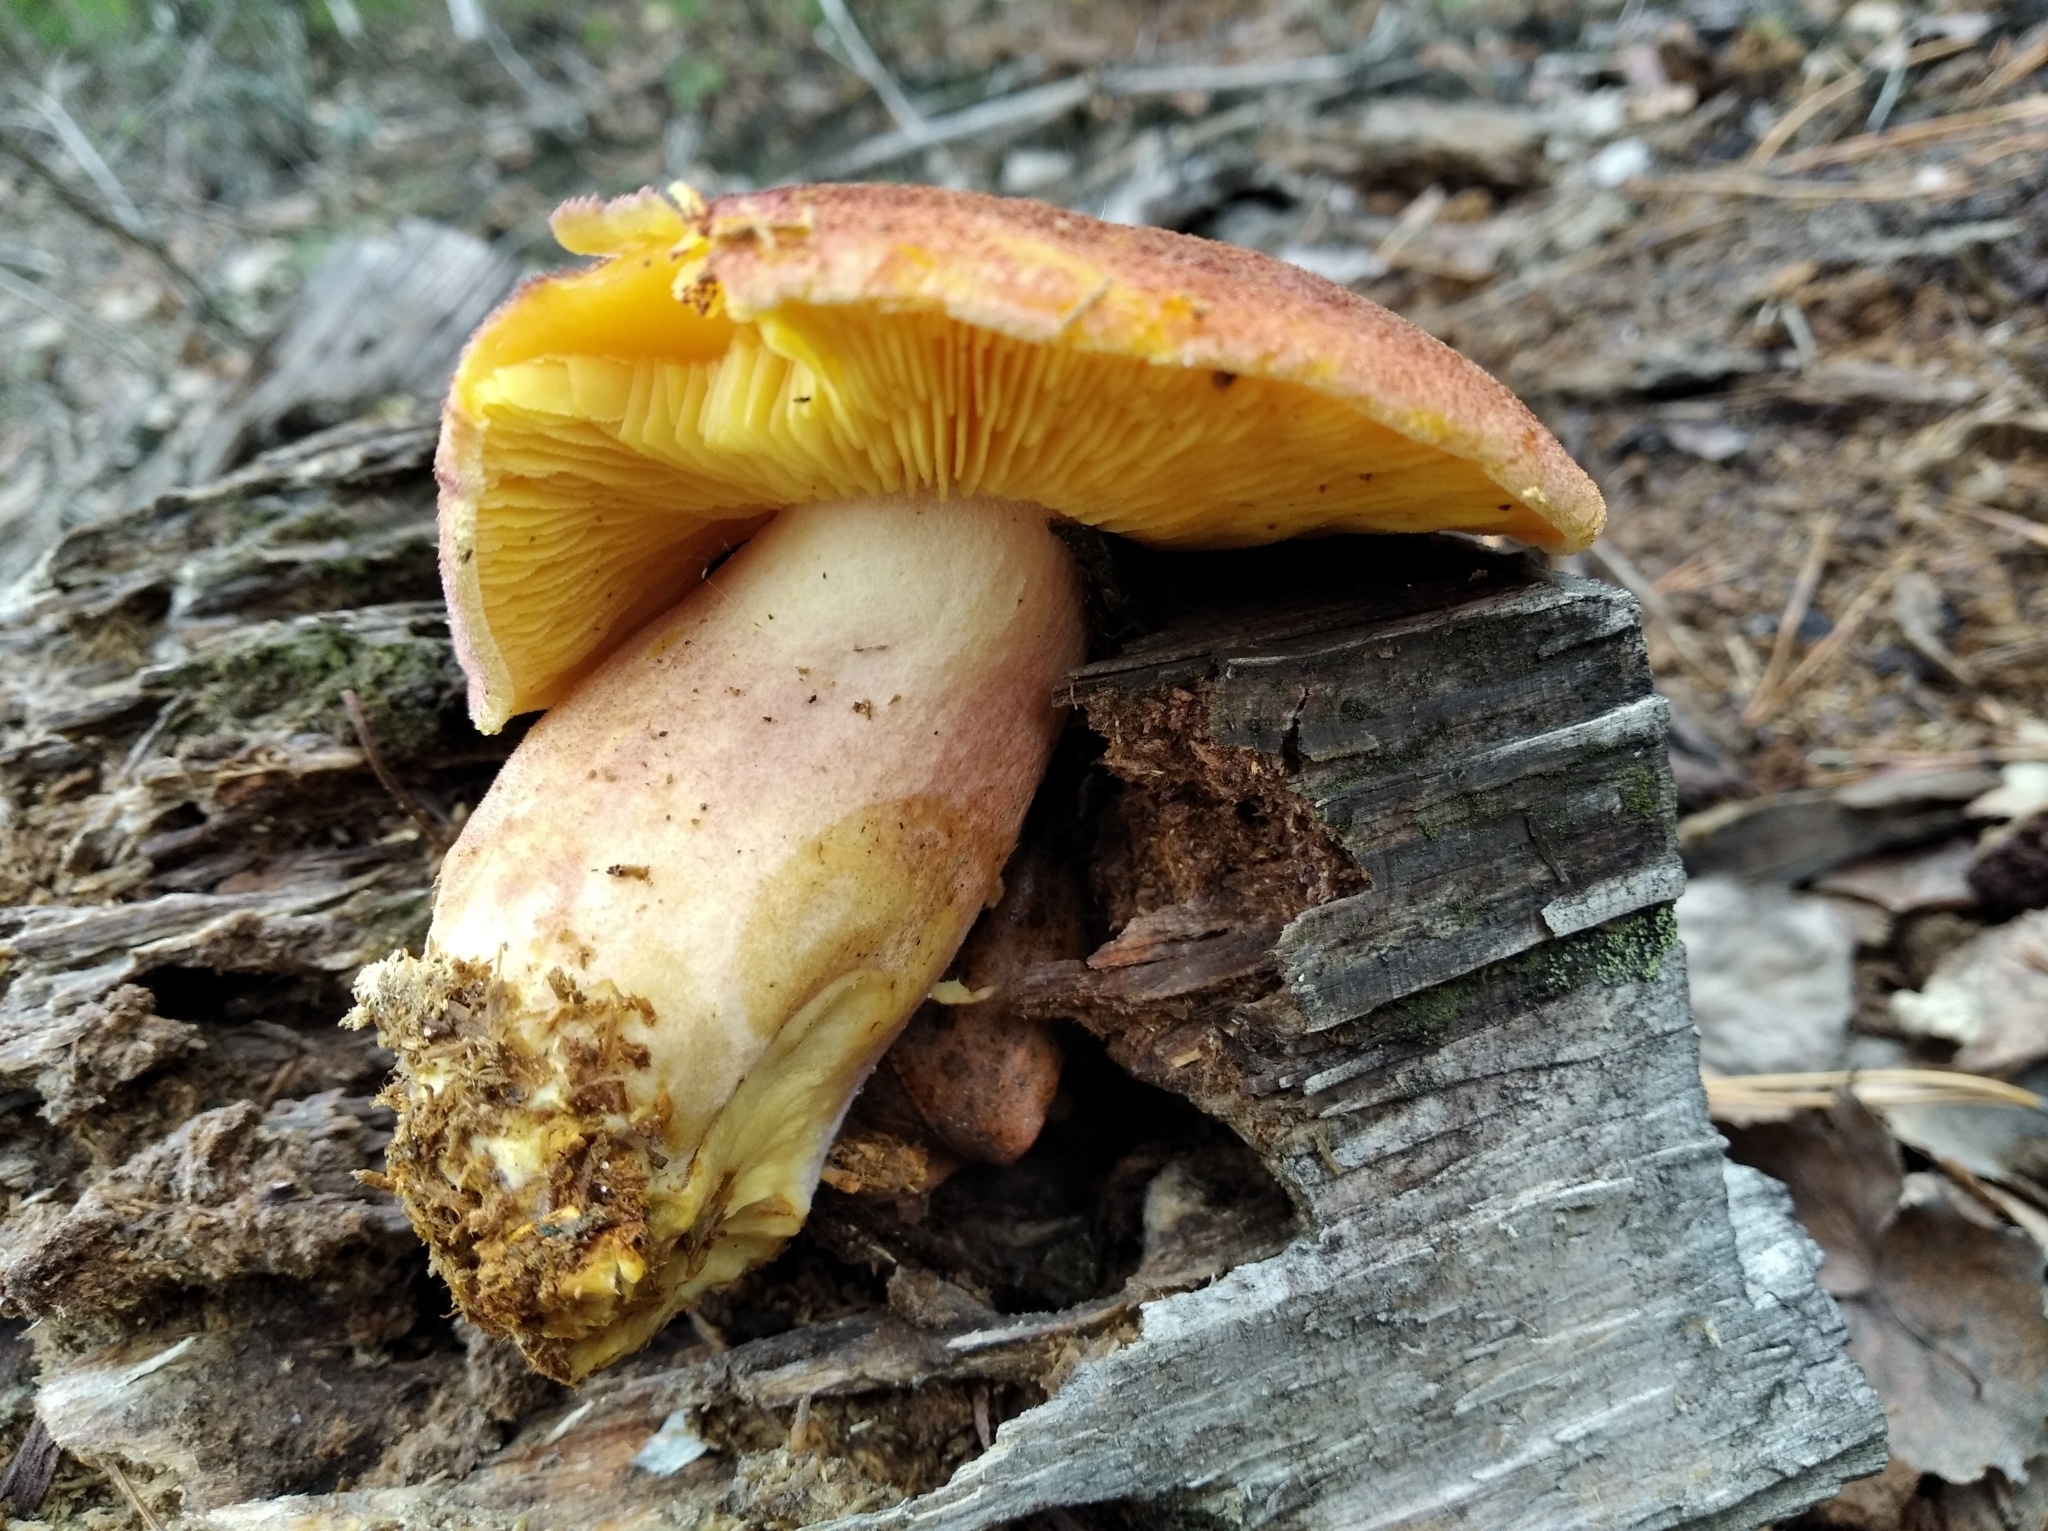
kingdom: Fungi
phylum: Basidiomycota
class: Agaricomycetes
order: Agaricales
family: Tricholomataceae
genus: Tricholomopsis
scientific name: Tricholomopsis rutilans
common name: Plums and custard
